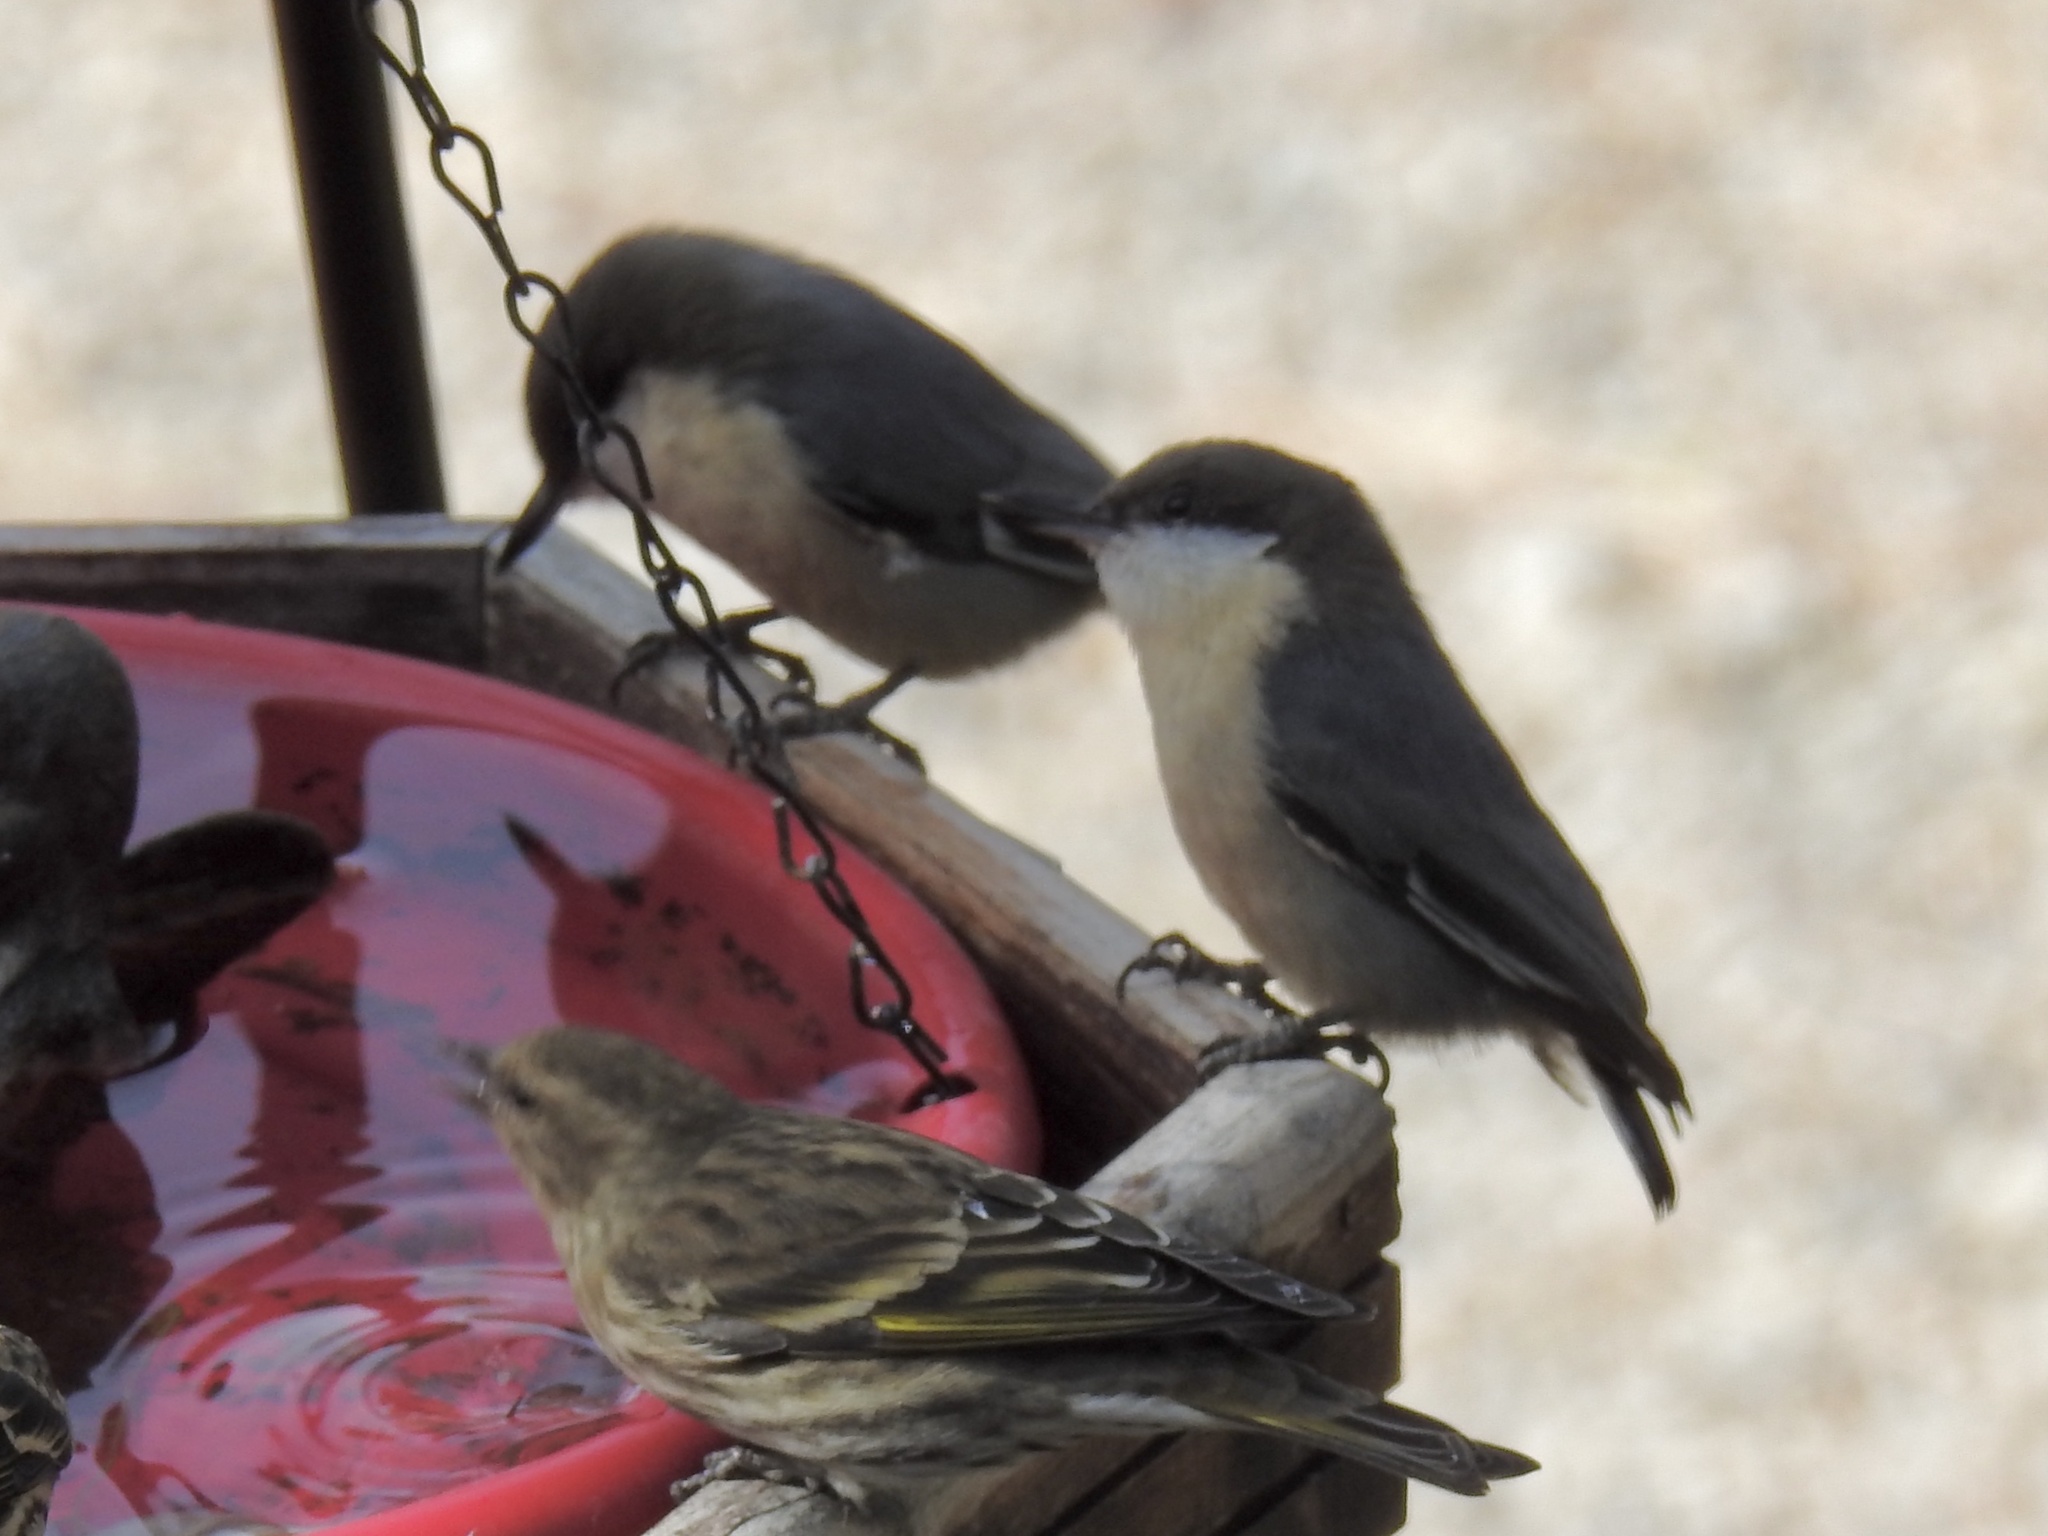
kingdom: Animalia
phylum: Chordata
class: Aves
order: Passeriformes
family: Sittidae
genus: Sitta
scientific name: Sitta pygmaea
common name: Pygmy nuthatch
